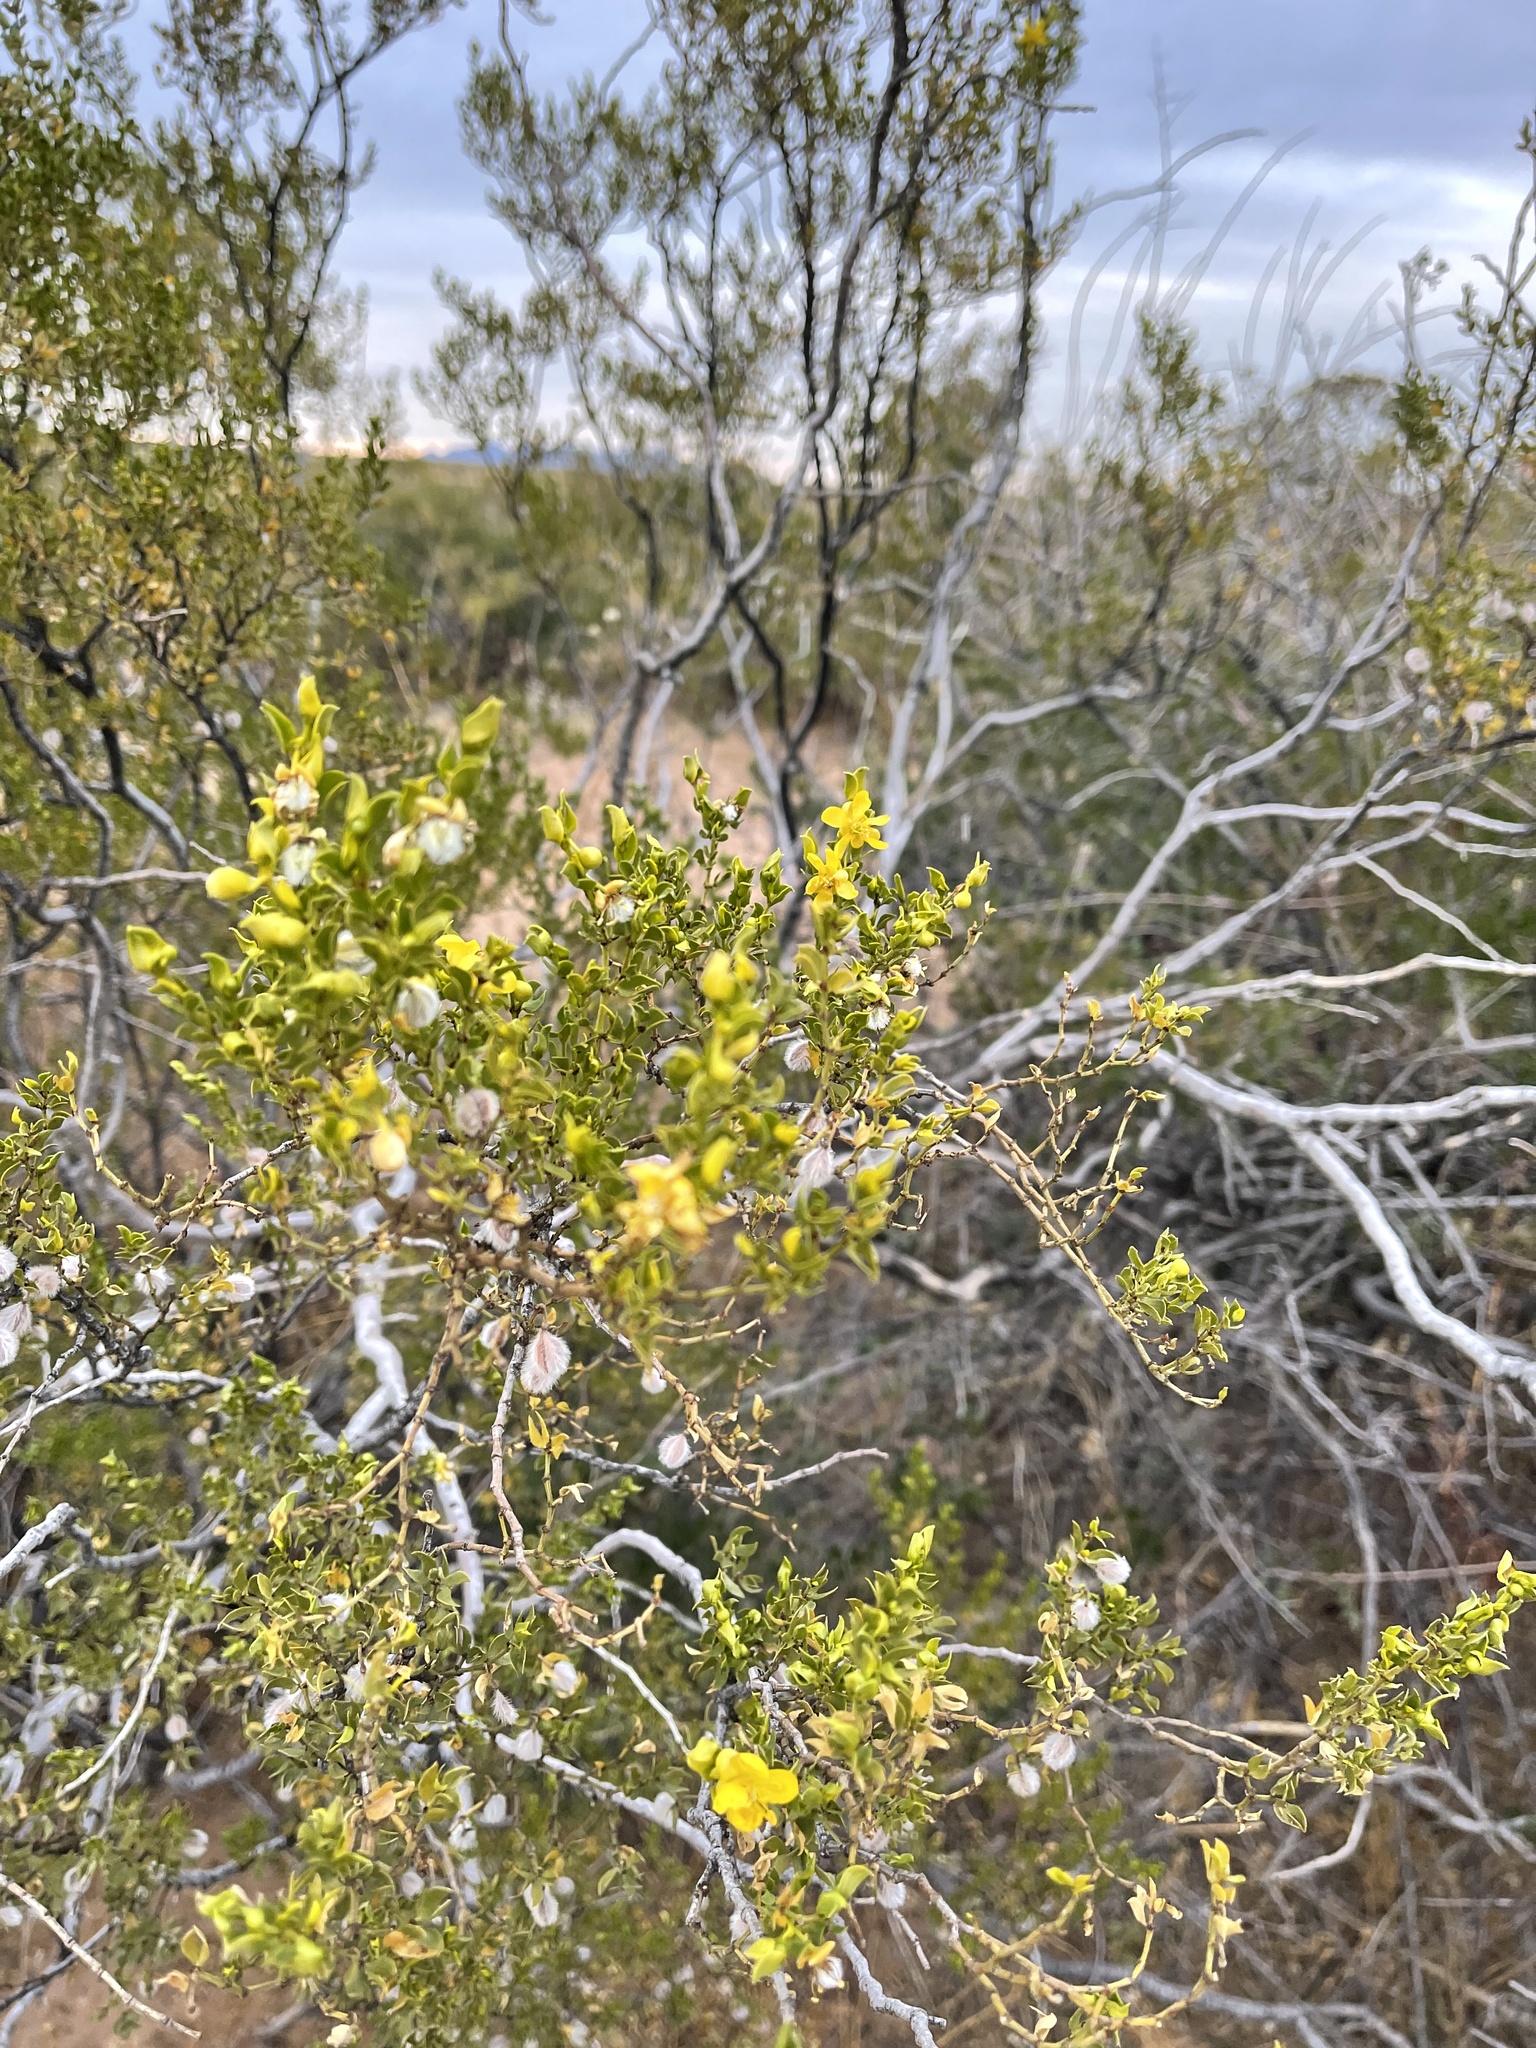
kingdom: Plantae
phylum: Tracheophyta
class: Magnoliopsida
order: Zygophyllales
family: Zygophyllaceae
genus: Larrea
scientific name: Larrea tridentata
